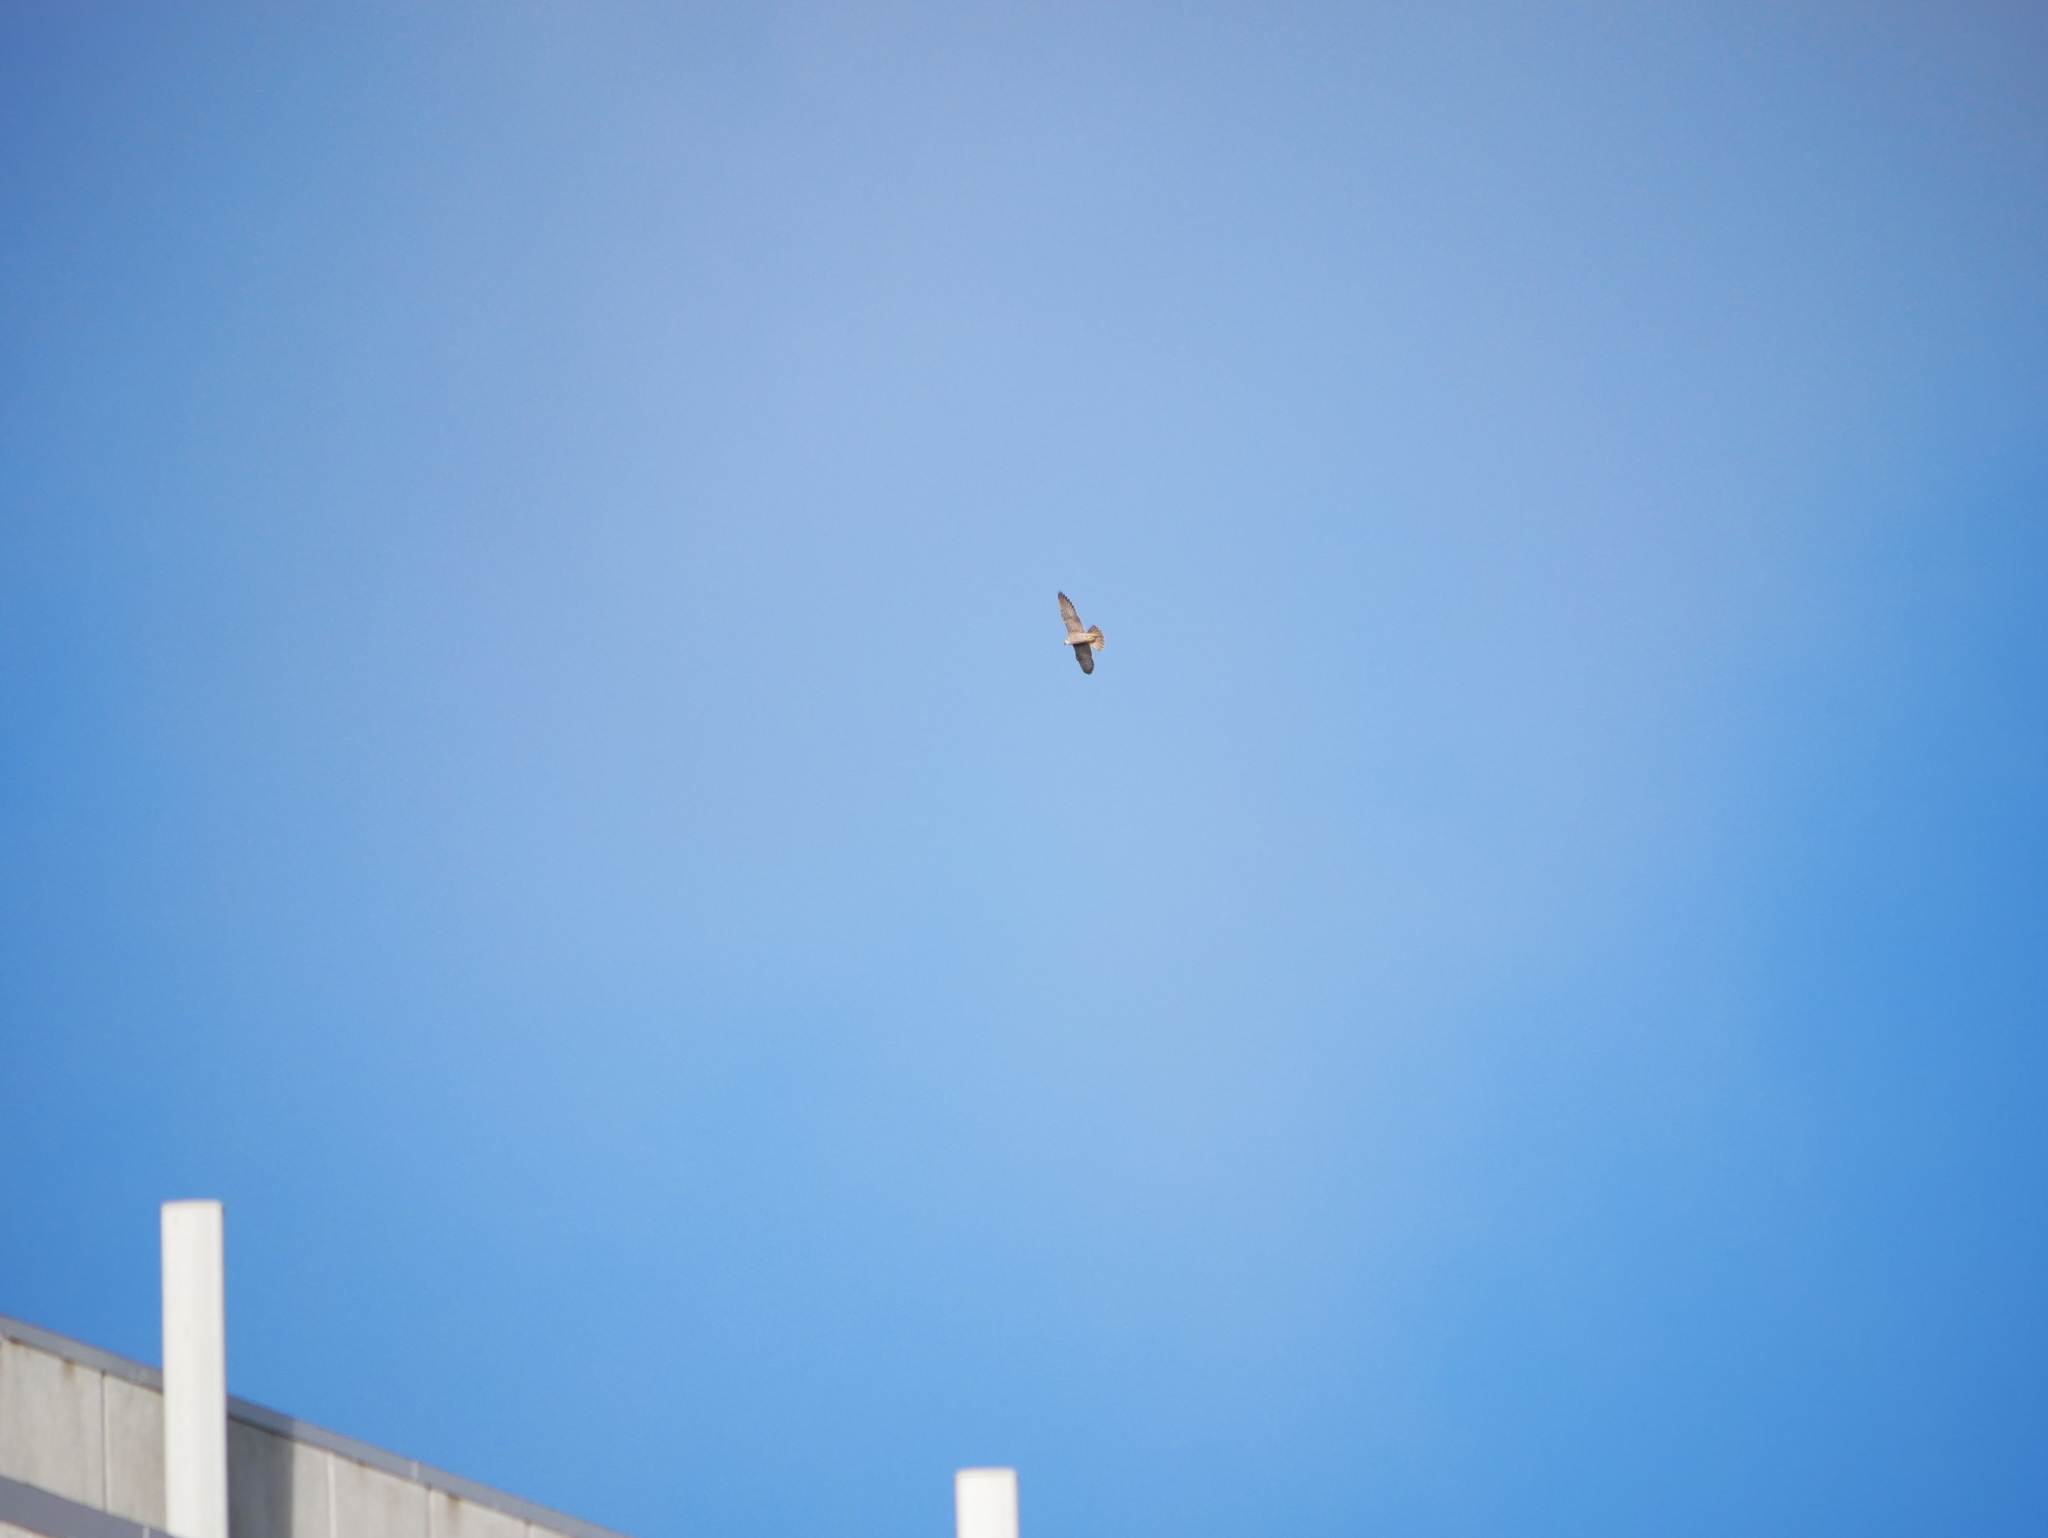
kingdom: Animalia
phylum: Chordata
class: Aves
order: Falconiformes
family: Falconidae
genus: Falco
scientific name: Falco peregrinus
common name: Peregrine falcon
